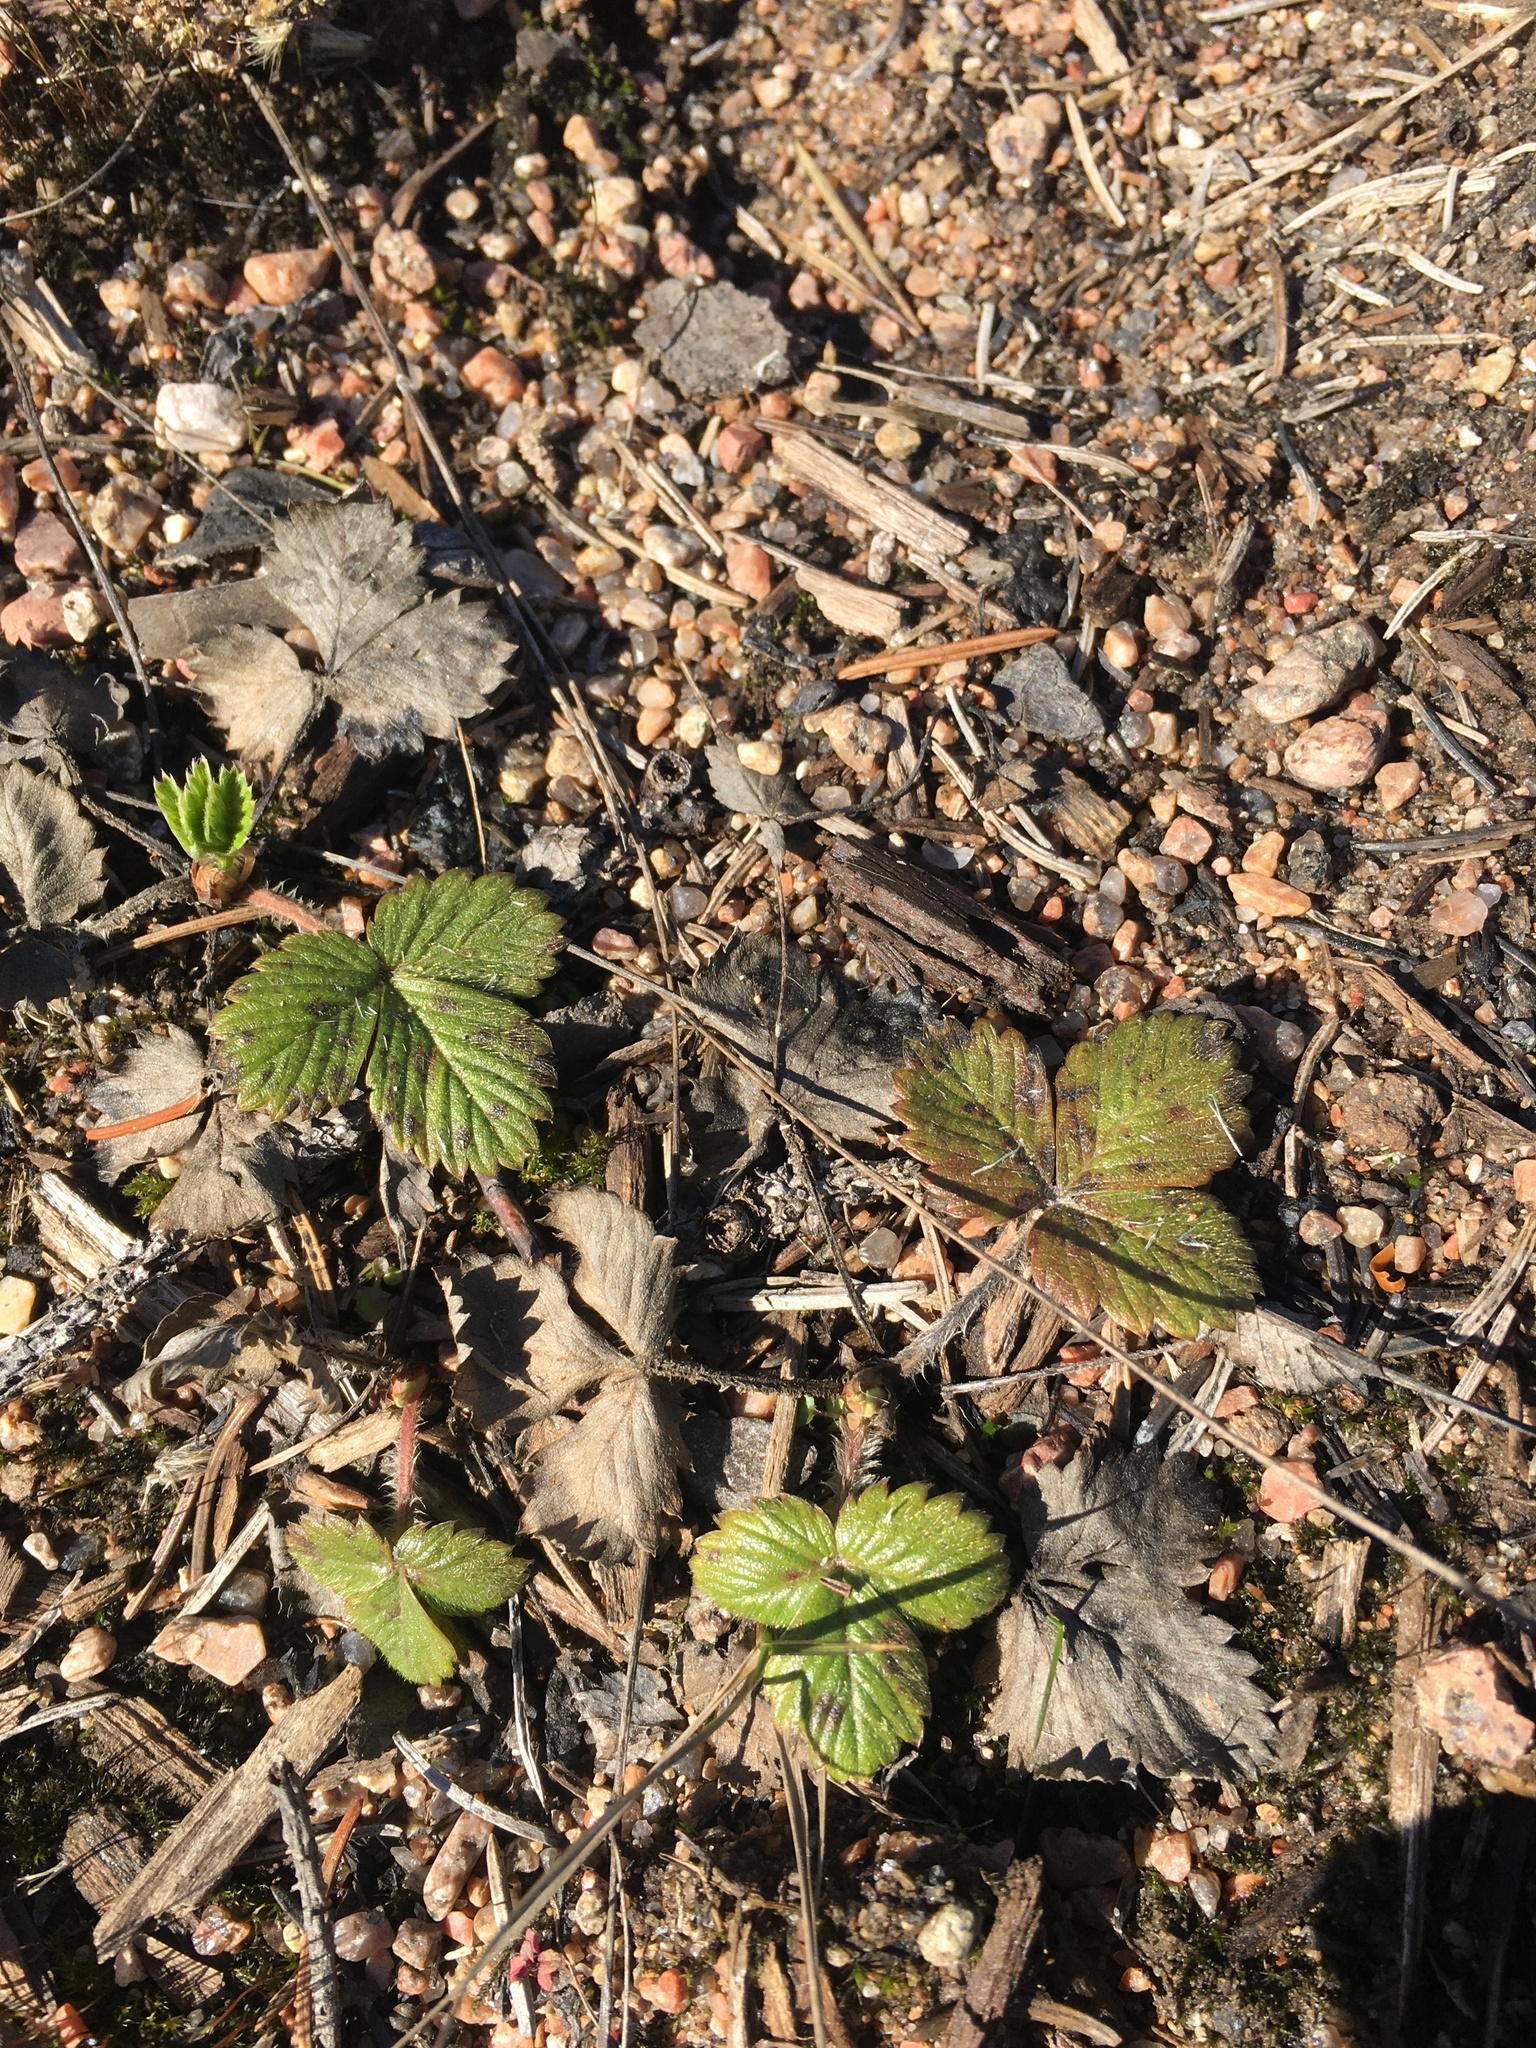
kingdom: Plantae
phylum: Tracheophyta
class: Magnoliopsida
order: Rosales
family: Rosaceae
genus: Fragaria
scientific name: Fragaria vesca
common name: Wild strawberry
